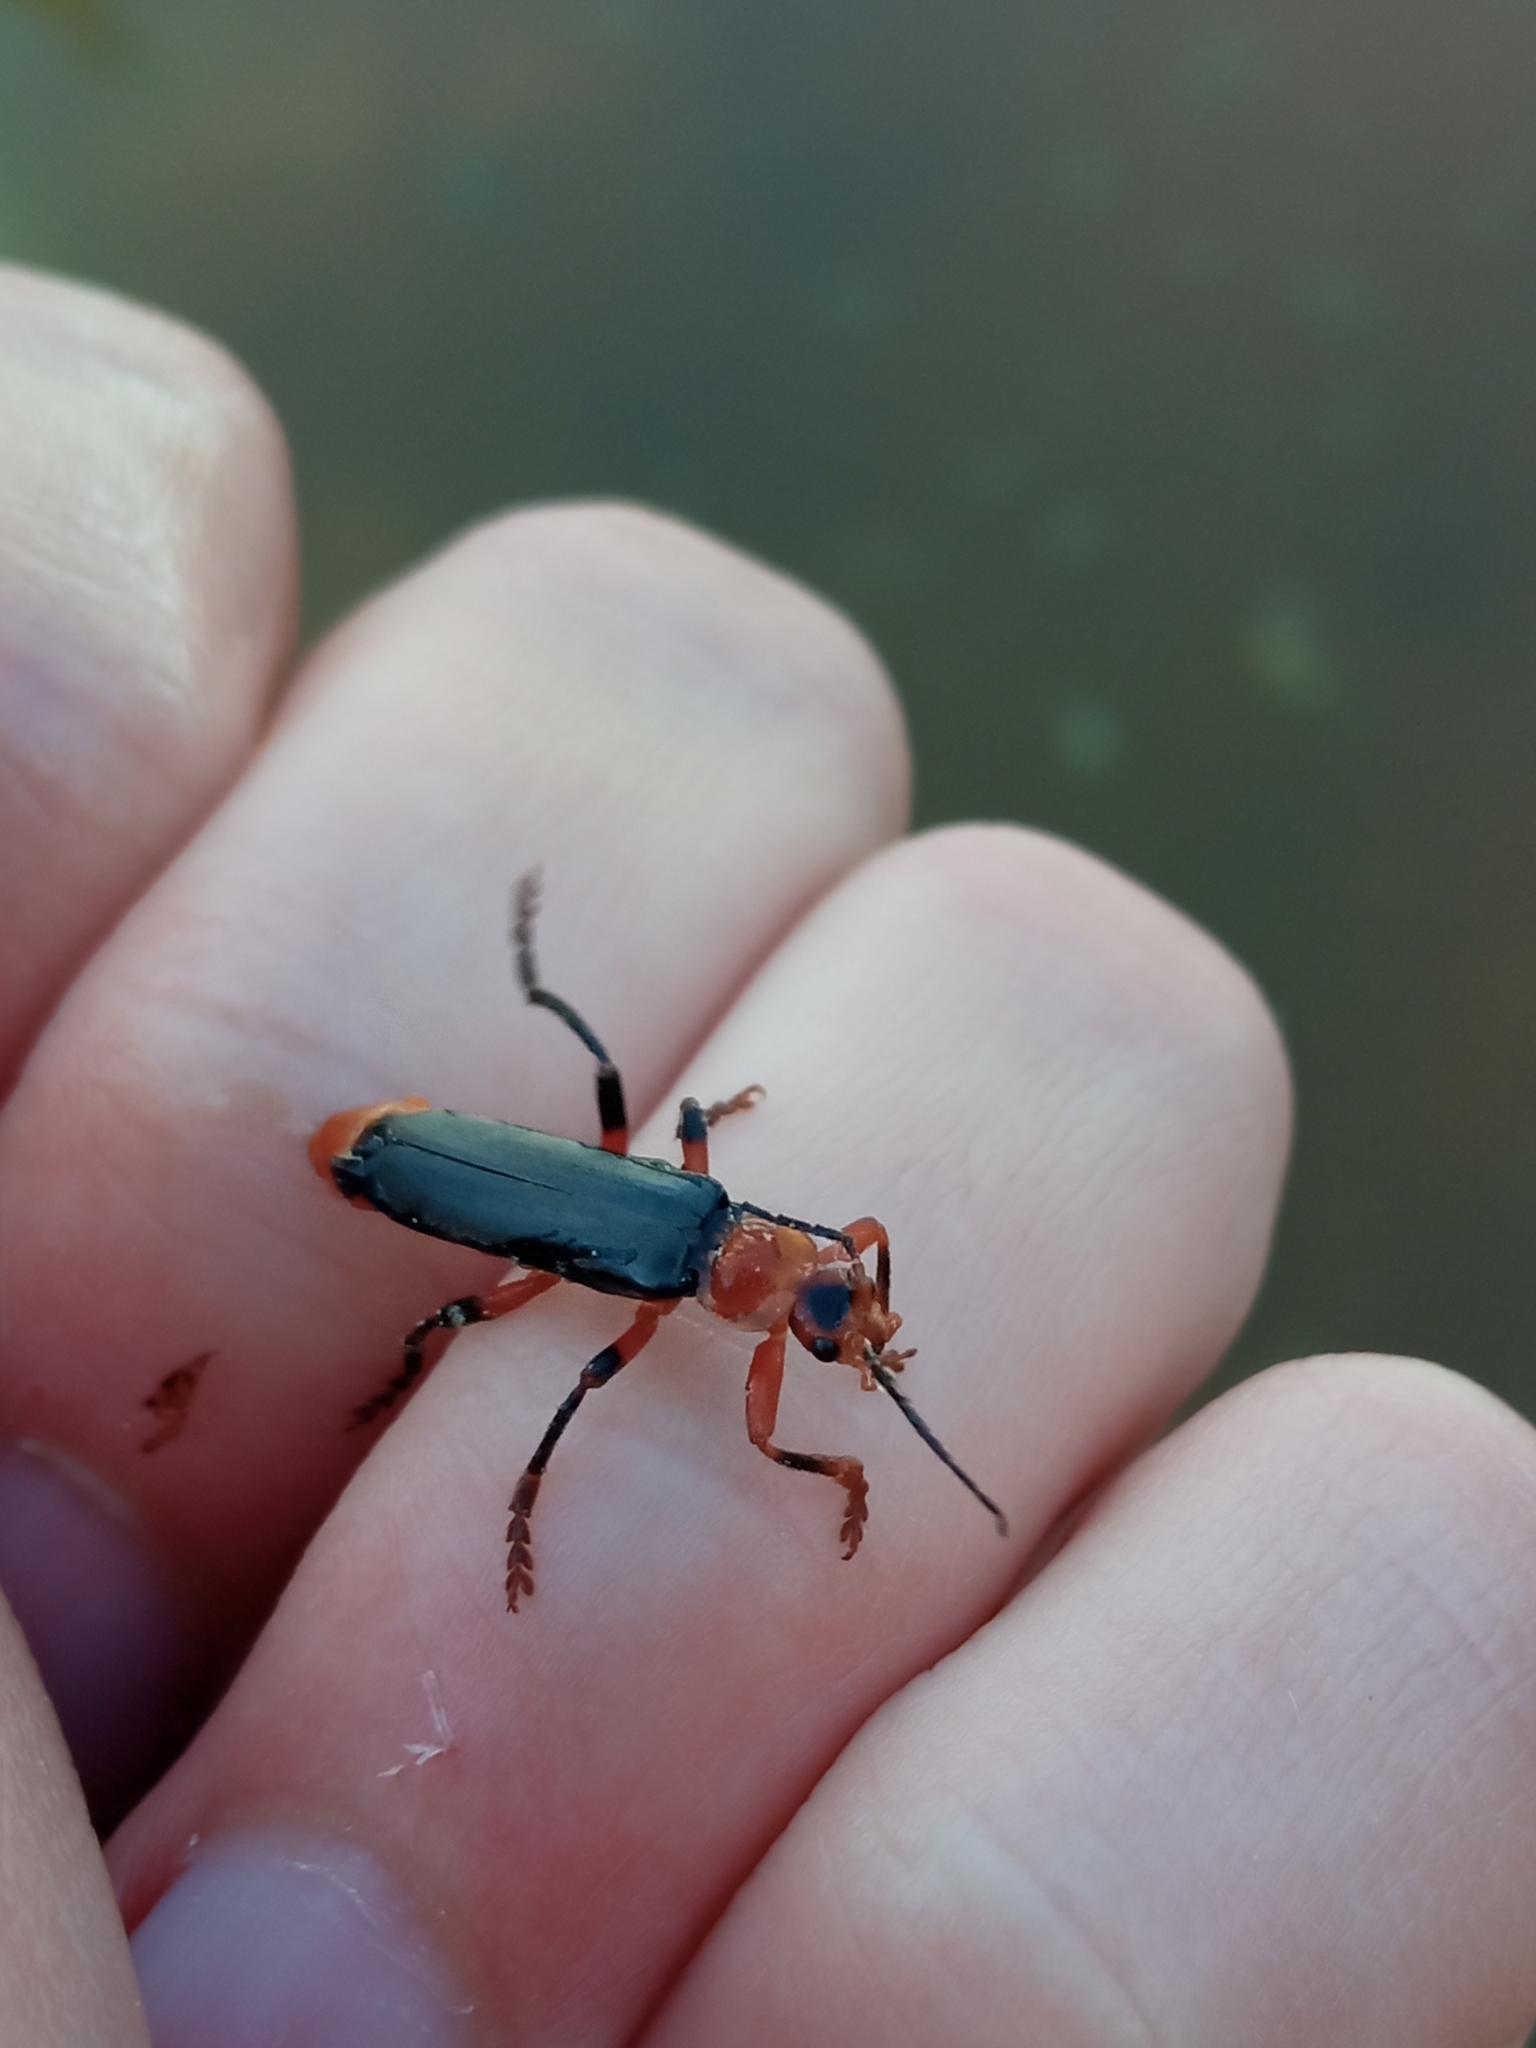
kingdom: Animalia
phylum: Arthropoda
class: Insecta
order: Coleoptera
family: Cantharidae
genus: Cantharis
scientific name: Cantharis livida
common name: Livid soldier beetle
